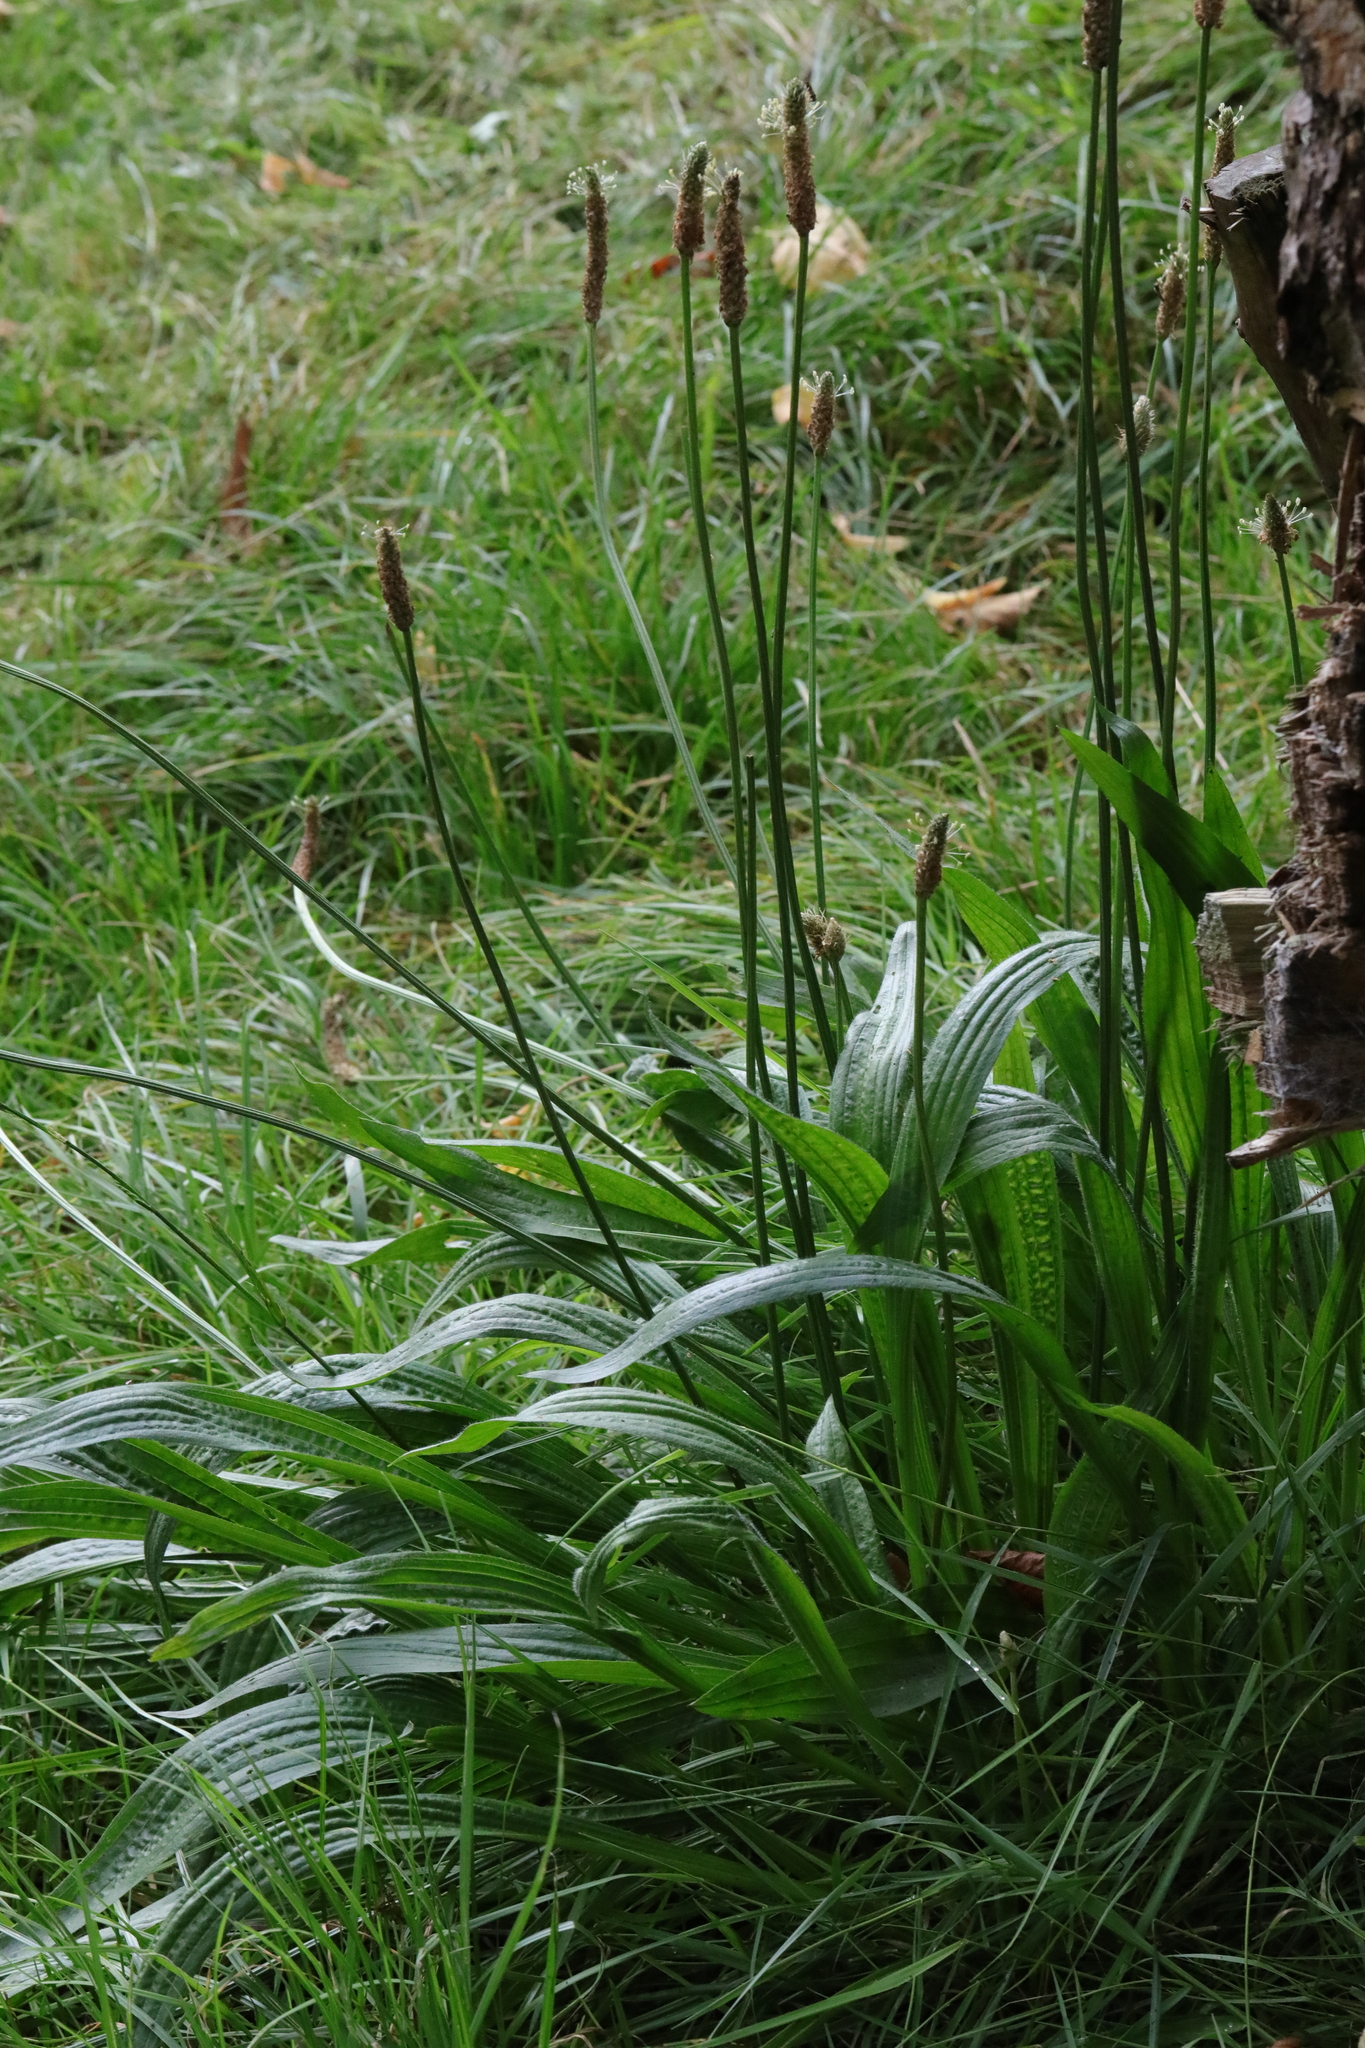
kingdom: Plantae
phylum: Tracheophyta
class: Magnoliopsida
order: Lamiales
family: Plantaginaceae
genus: Plantago
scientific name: Plantago lanceolata
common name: Ribwort plantain
